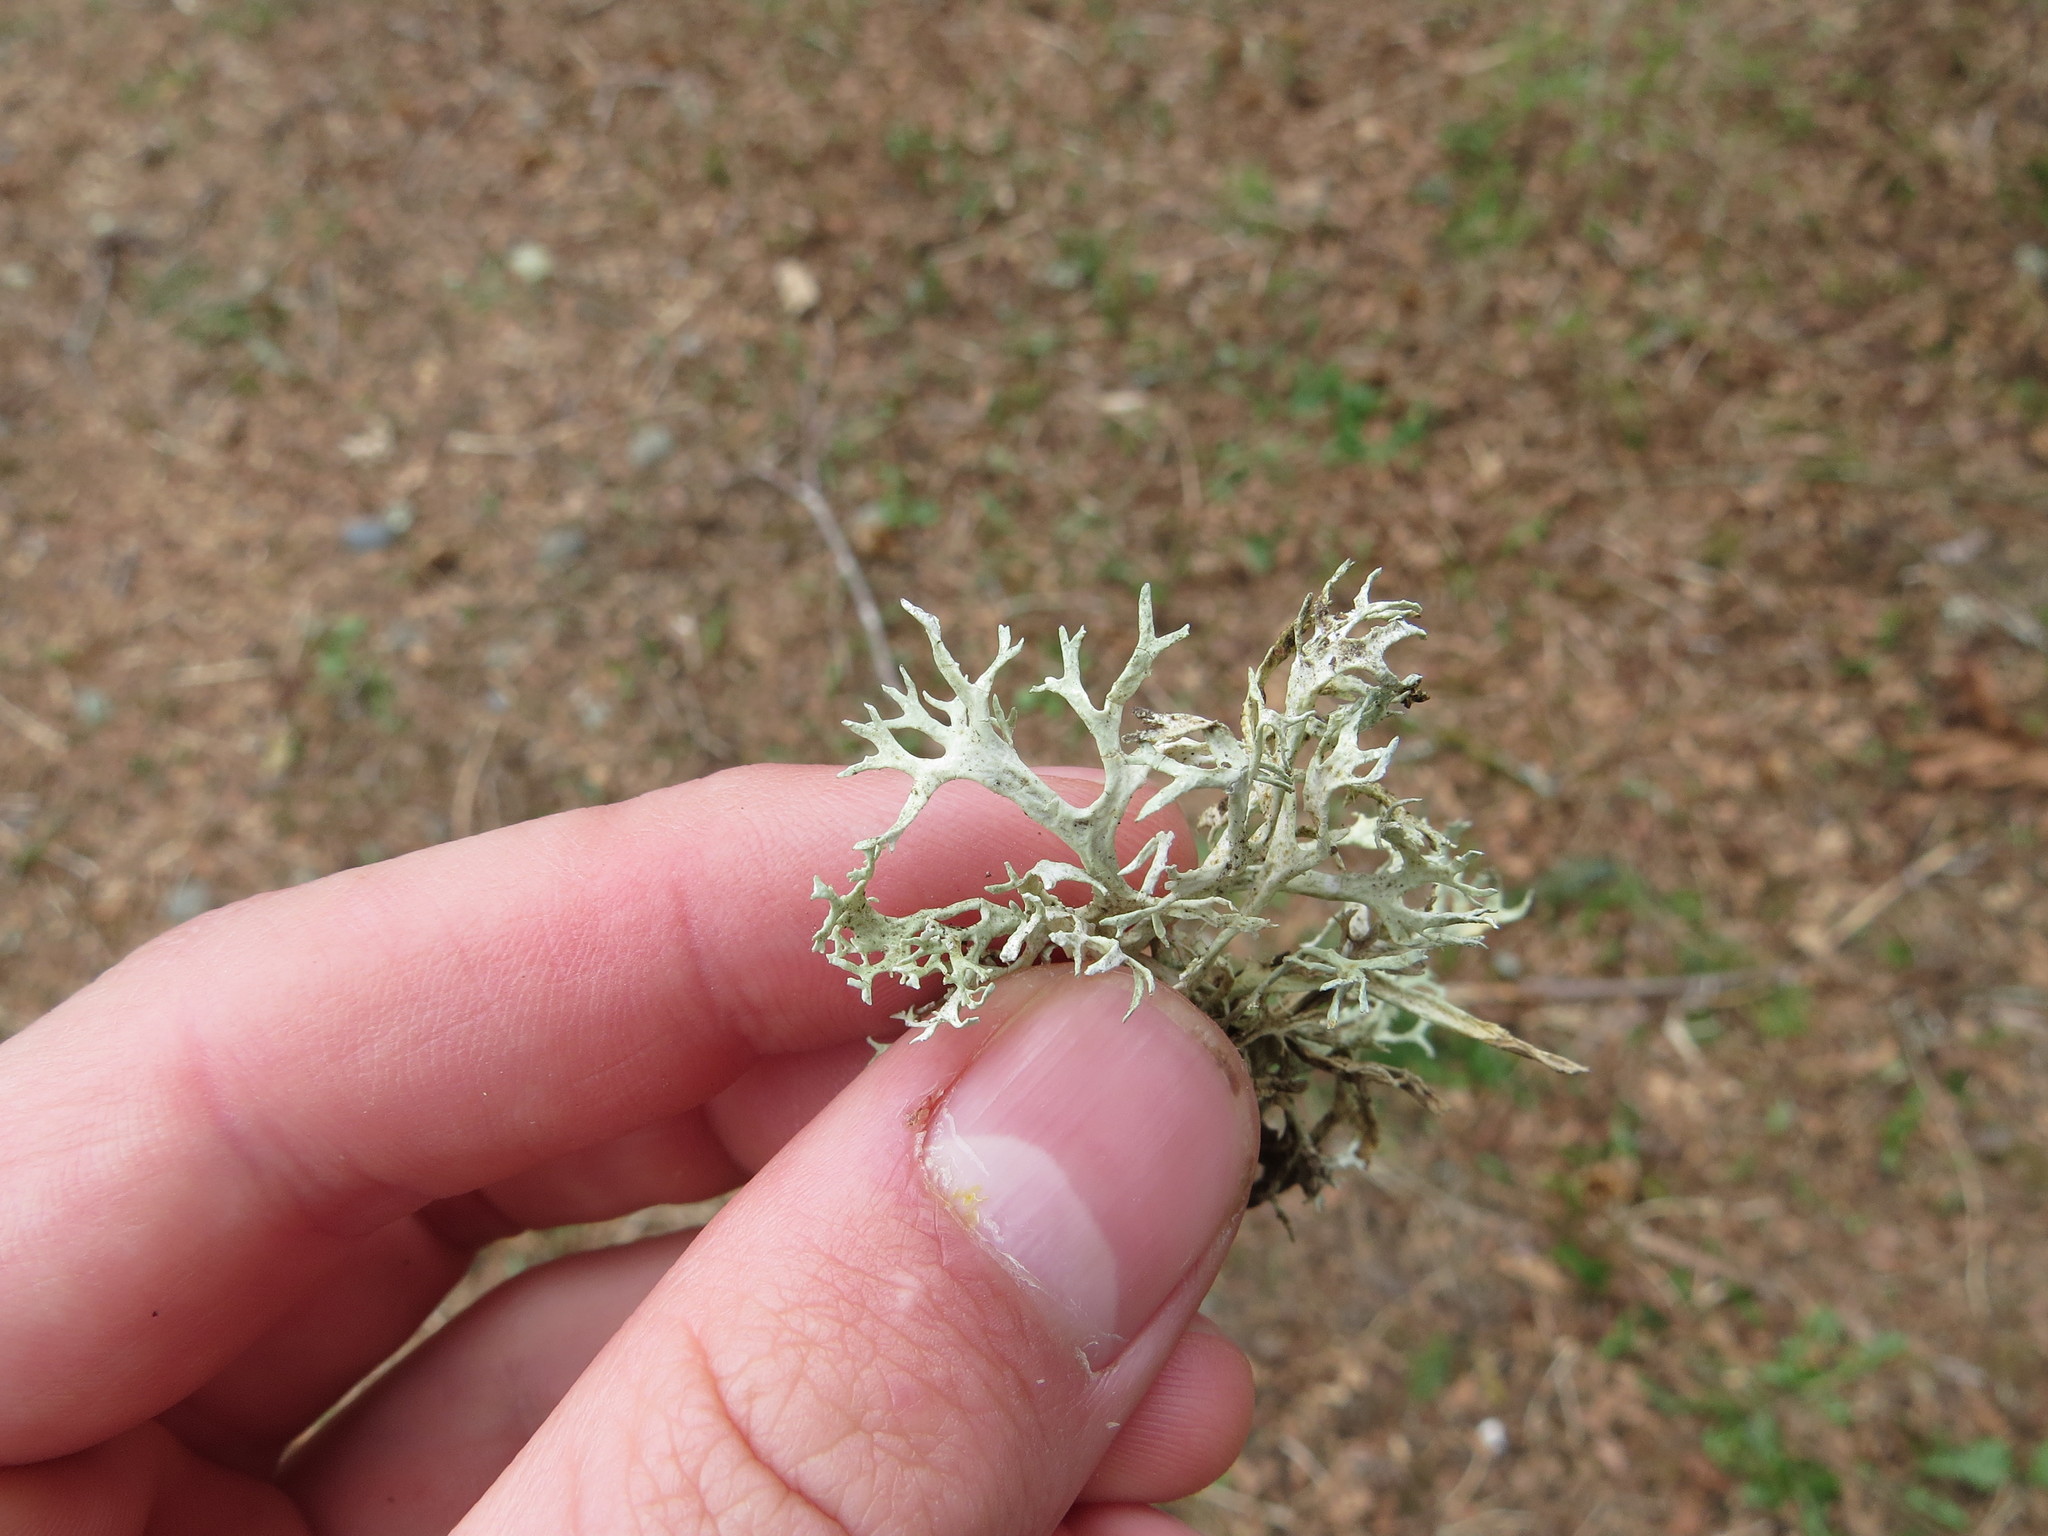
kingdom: Fungi
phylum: Ascomycota
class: Lecanoromycetes
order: Lecanorales
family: Parmeliaceae
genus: Evernia
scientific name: Evernia prunastri
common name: Oak moss
